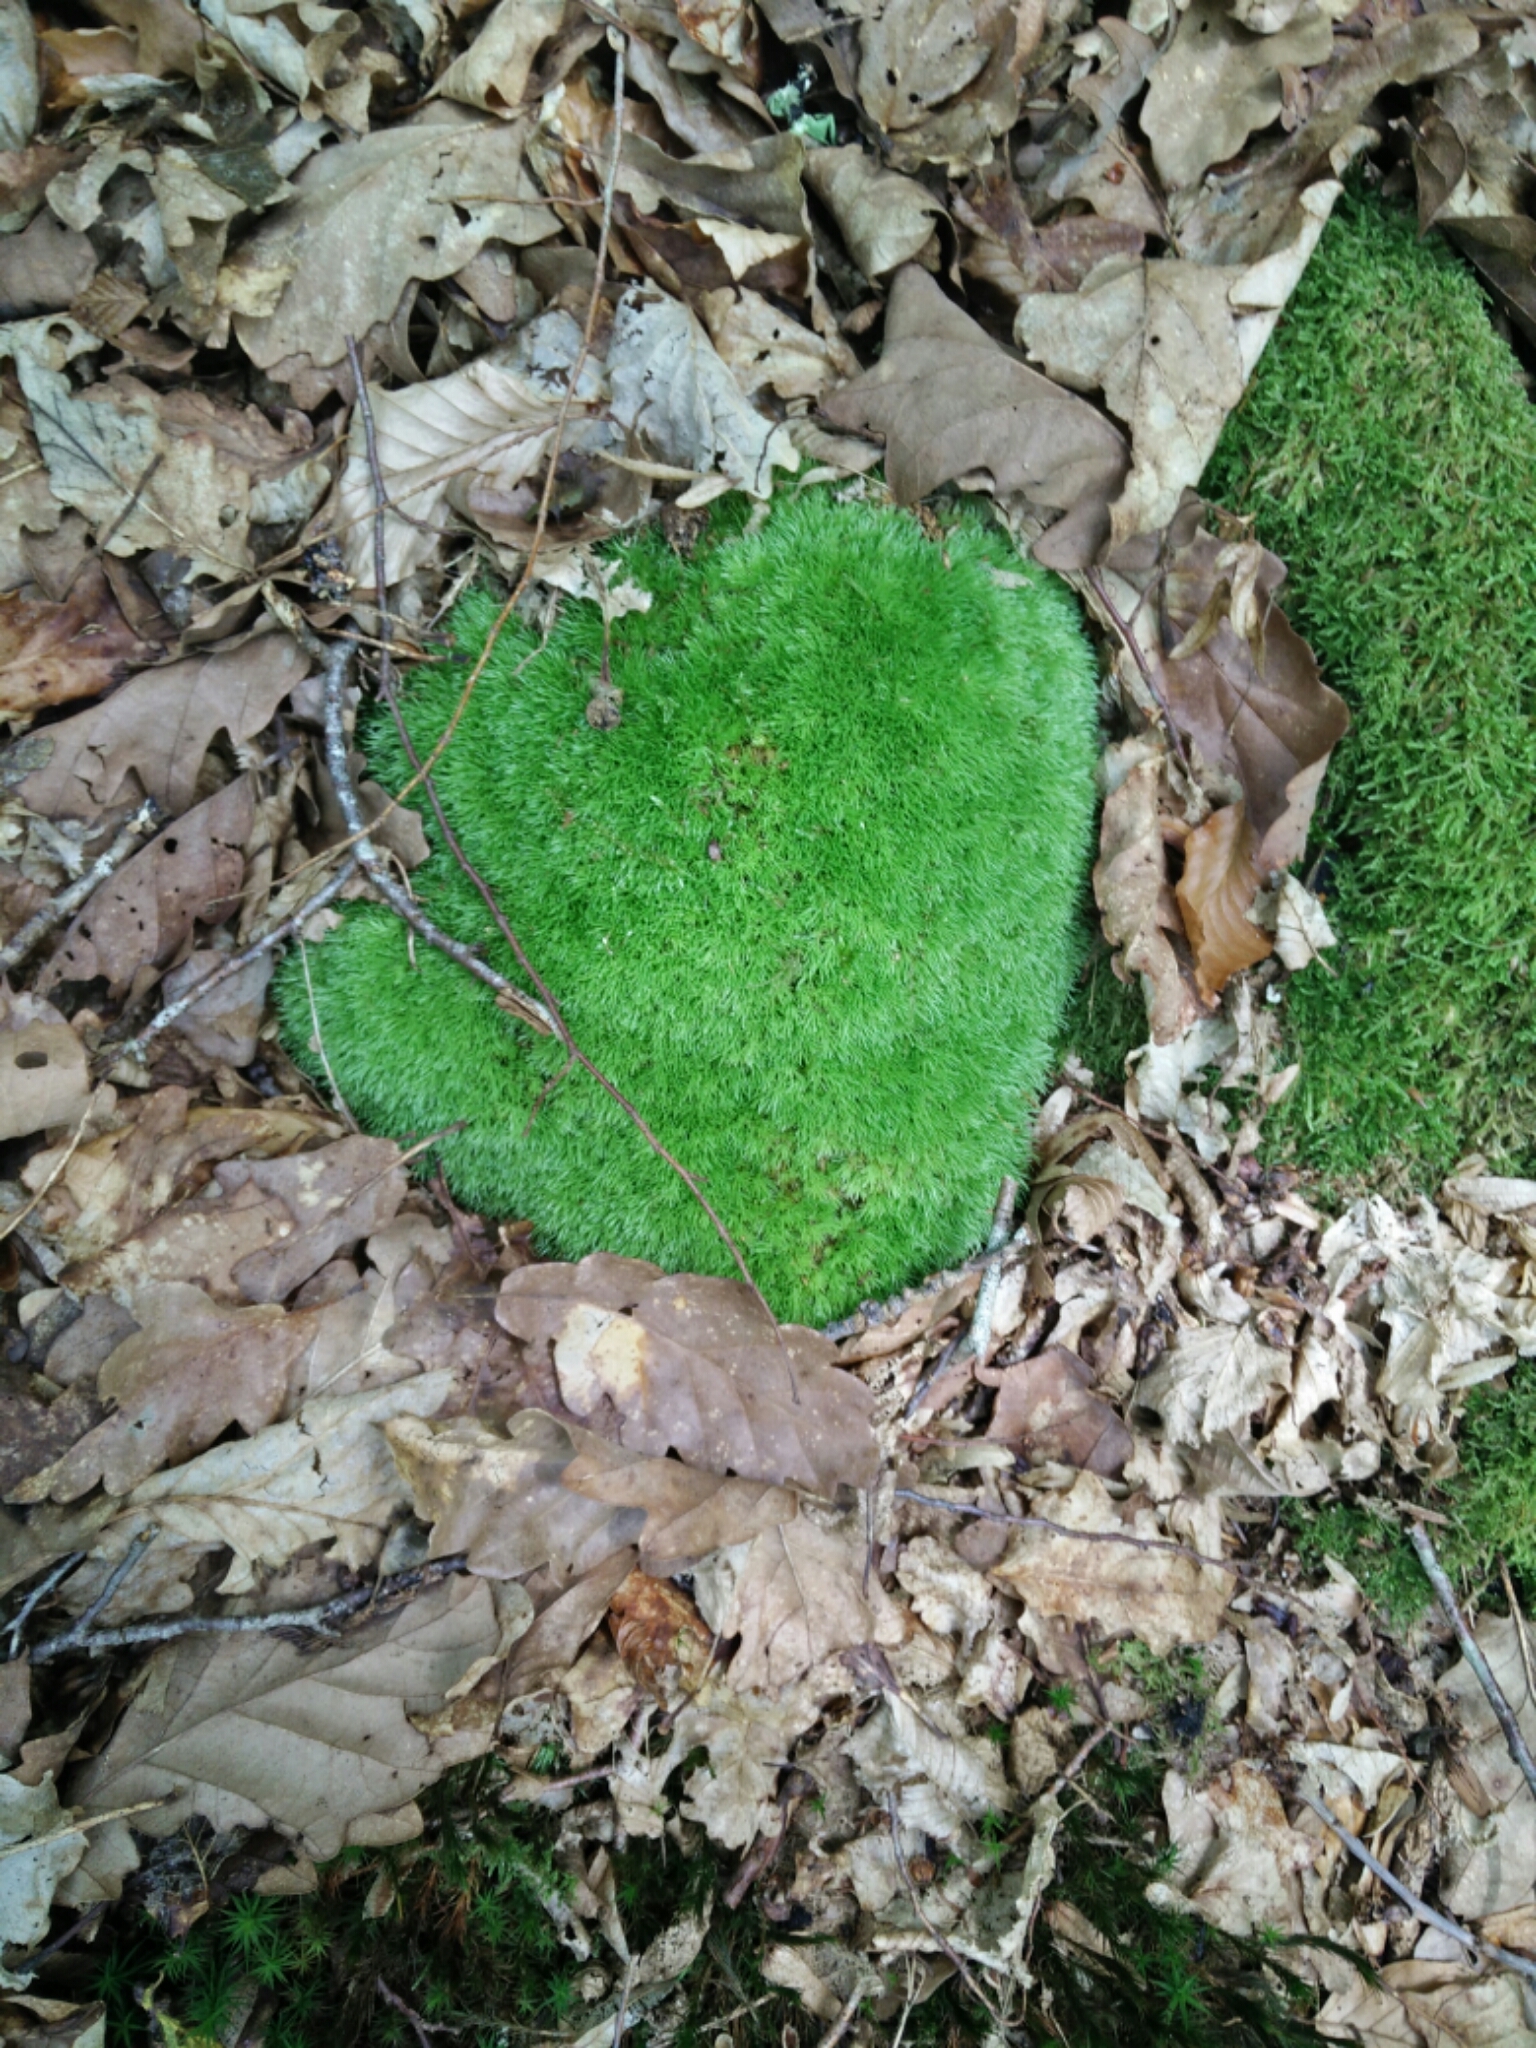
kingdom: Plantae
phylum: Bryophyta
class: Bryopsida
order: Dicranales
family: Leucobryaceae
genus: Leucobryum
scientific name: Leucobryum glaucum
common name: Large white-moss
